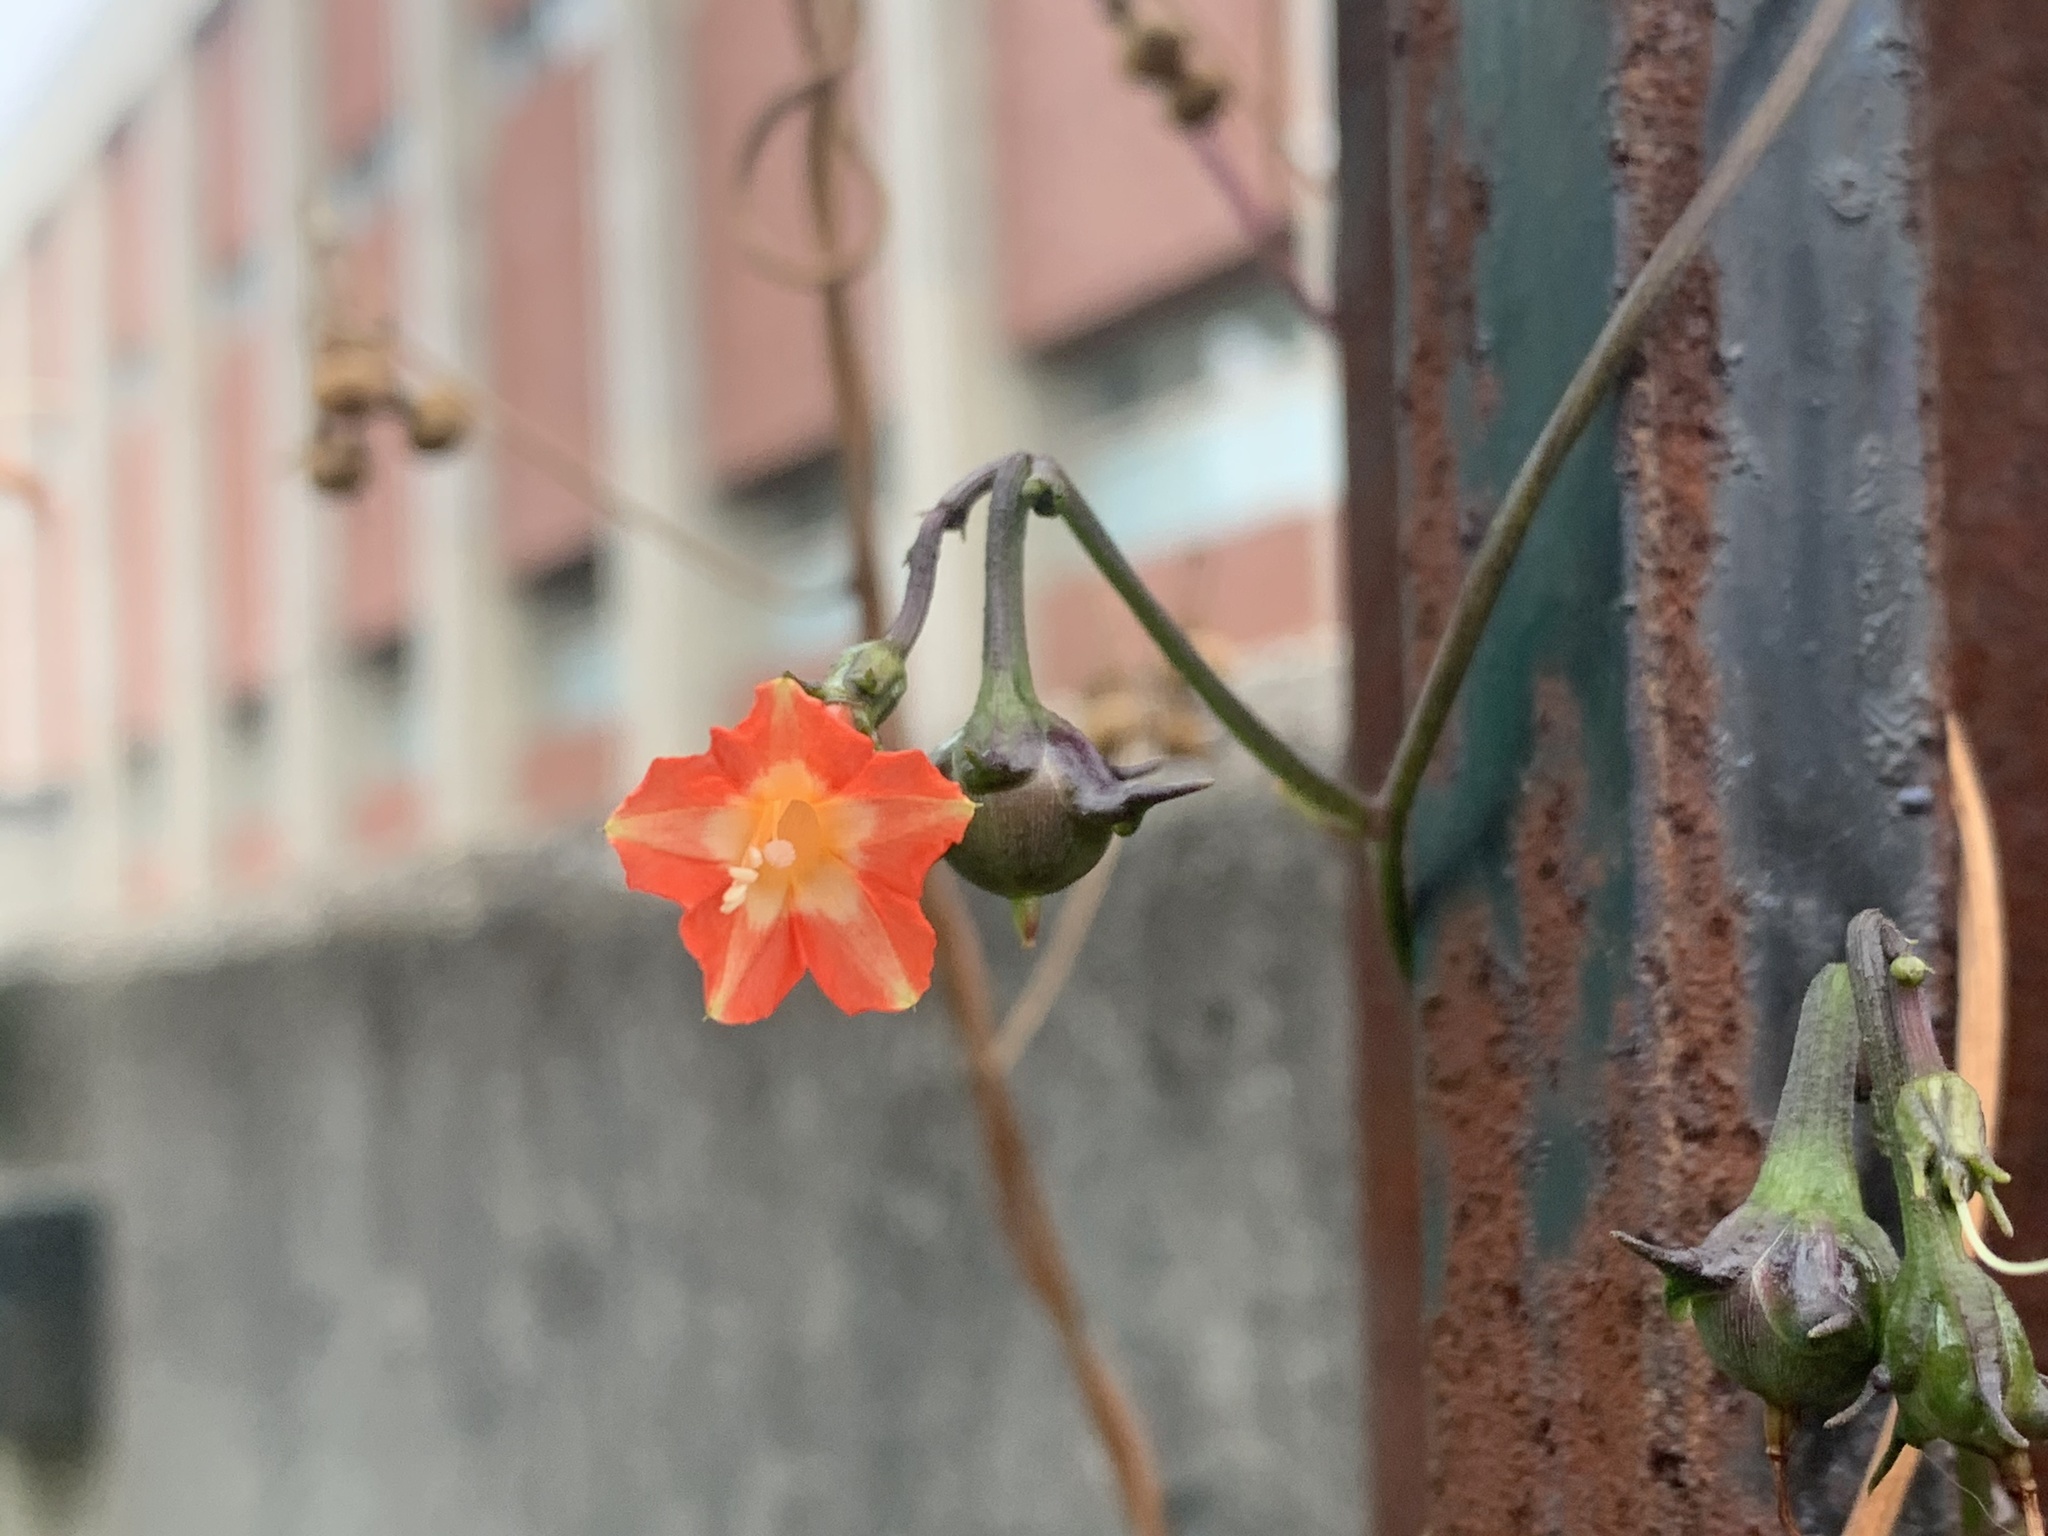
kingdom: Plantae
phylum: Tracheophyta
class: Magnoliopsida
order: Solanales
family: Convolvulaceae
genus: Ipomoea
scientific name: Ipomoea coccinea
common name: Red morning-glory
